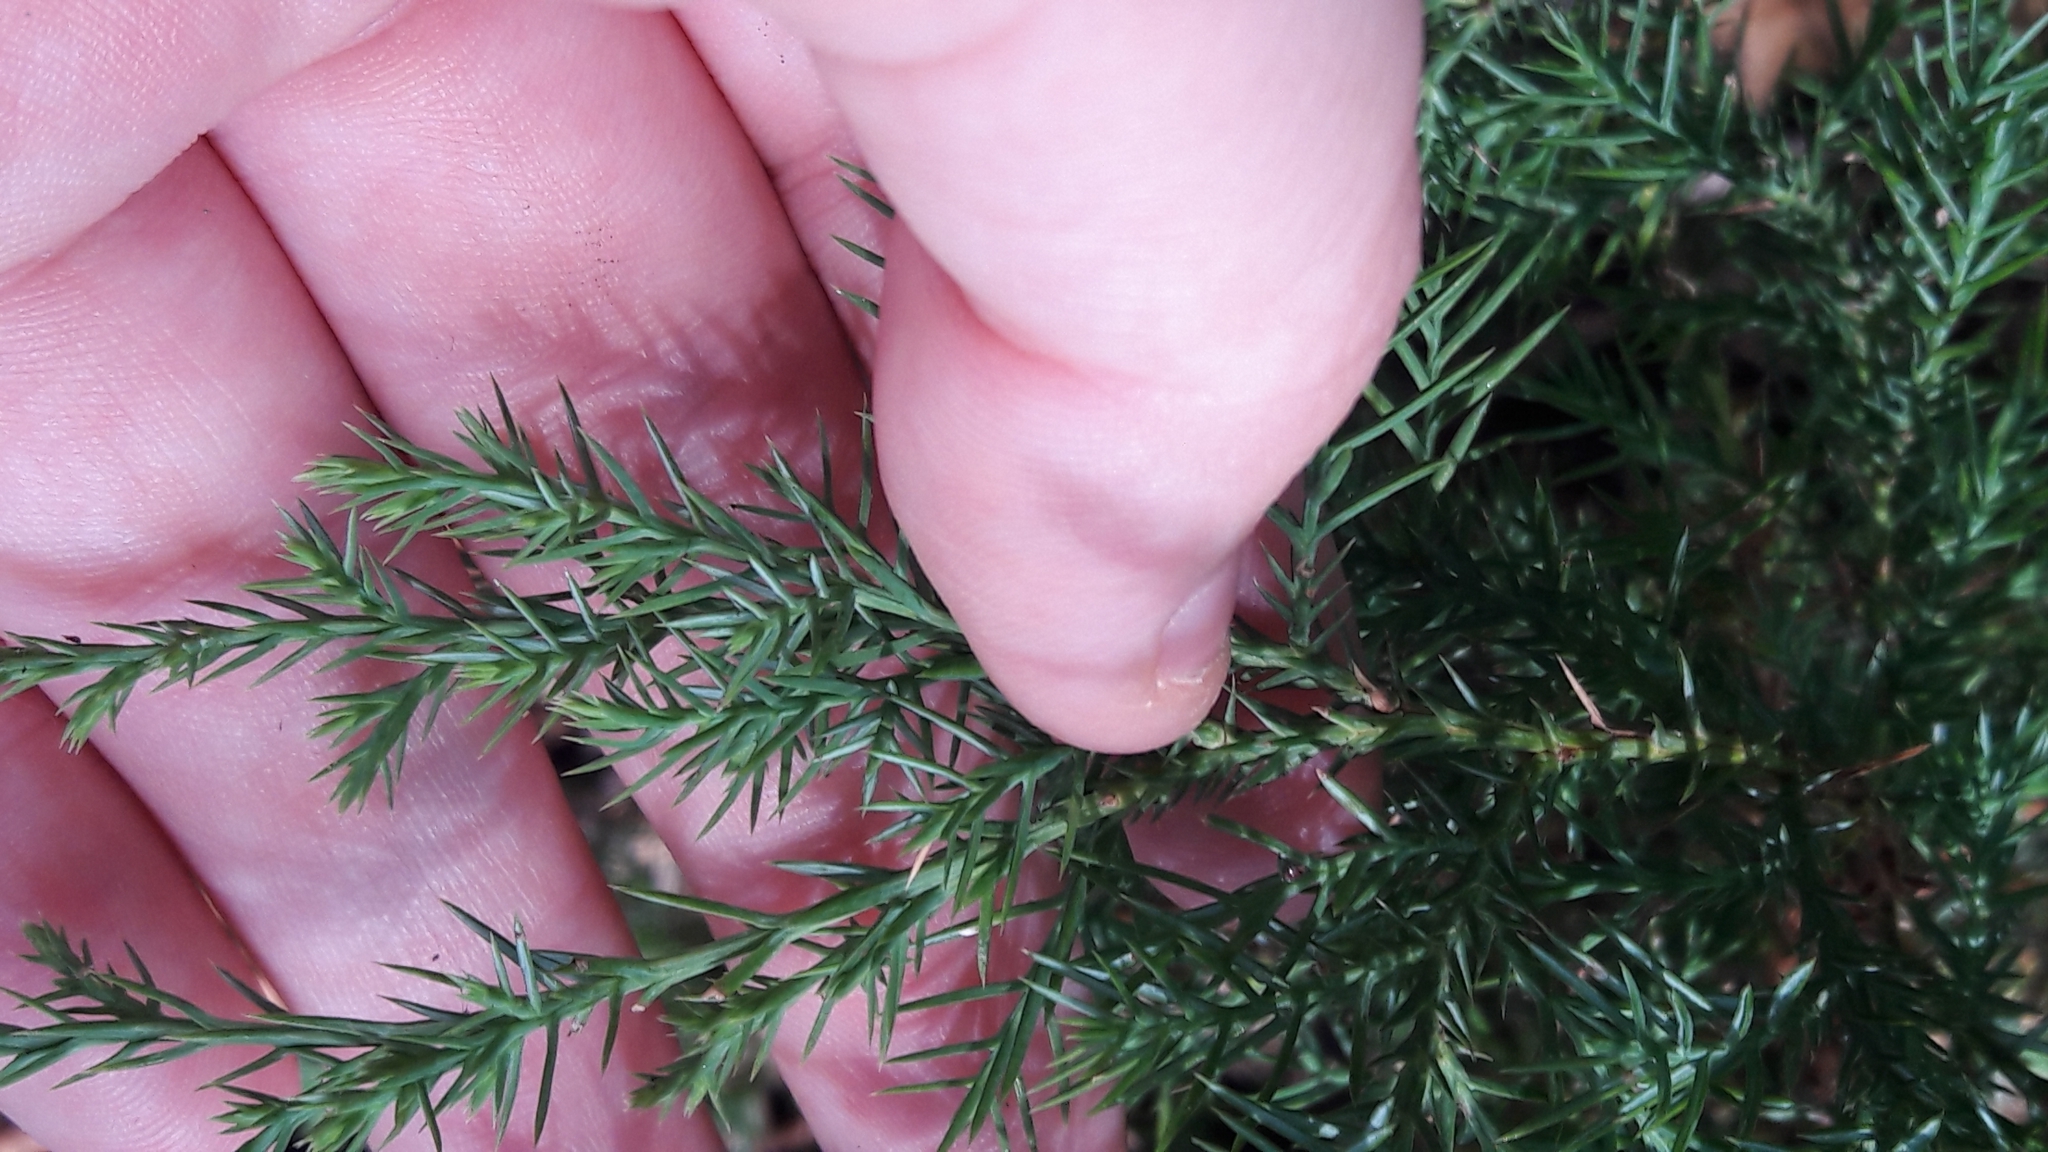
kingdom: Plantae
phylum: Tracheophyta
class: Pinopsida
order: Pinales
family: Cupressaceae
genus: Juniperus
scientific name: Juniperus virginiana
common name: Red juniper
